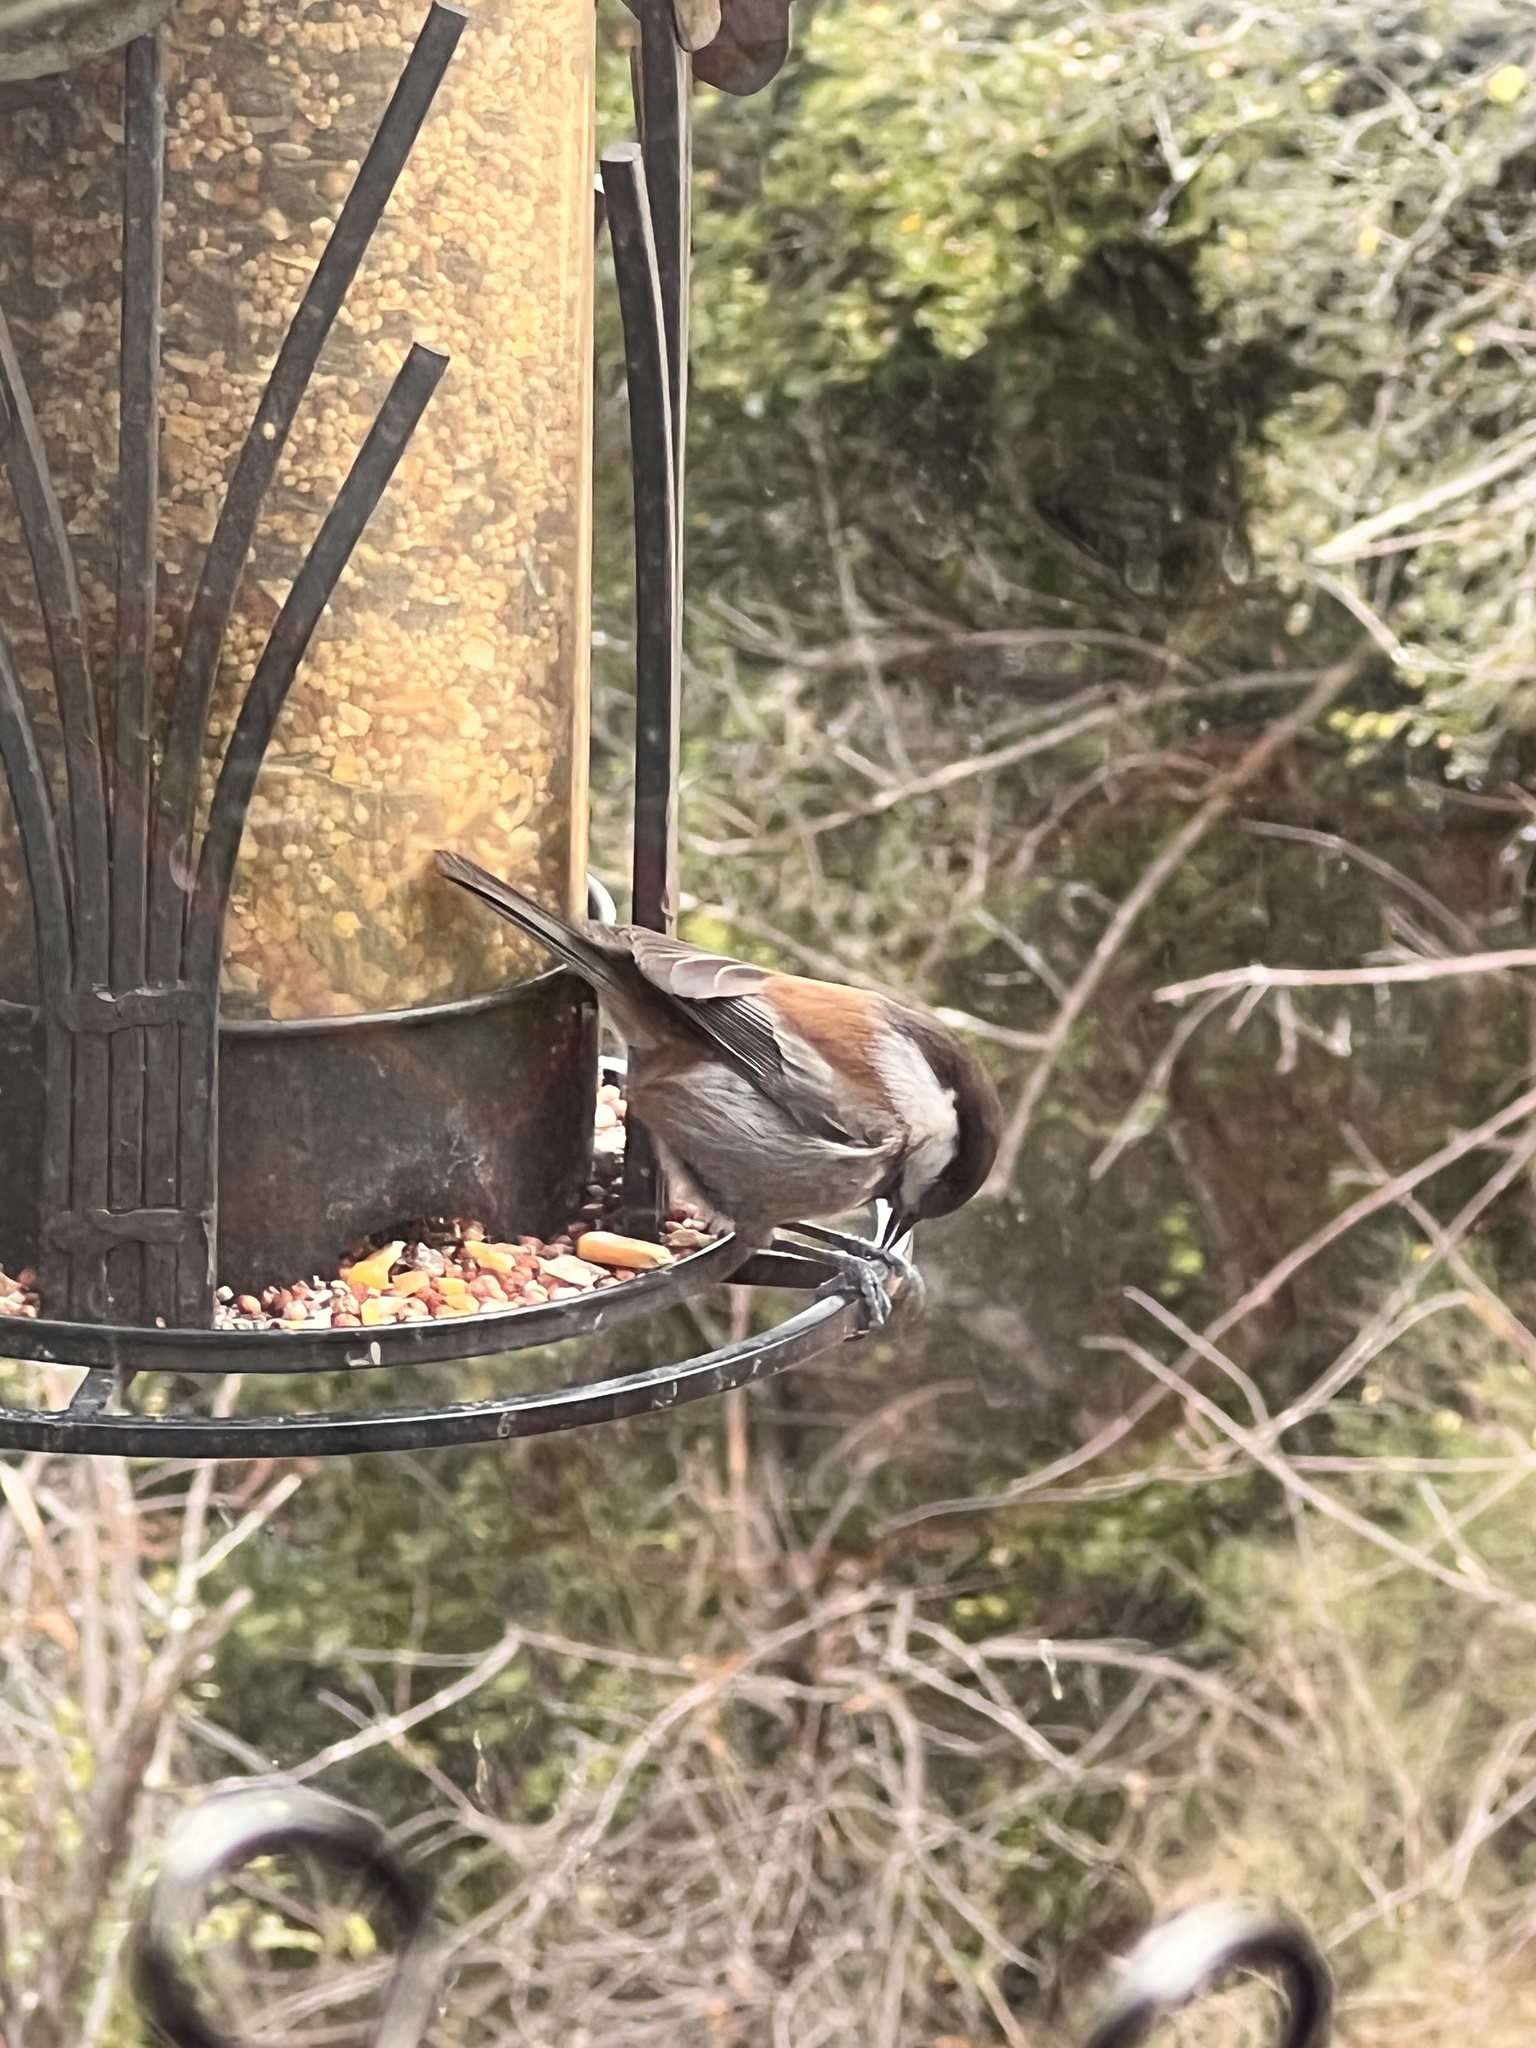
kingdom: Animalia
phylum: Chordata
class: Aves
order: Passeriformes
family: Paridae
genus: Poecile
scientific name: Poecile rufescens
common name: Chestnut-backed chickadee
